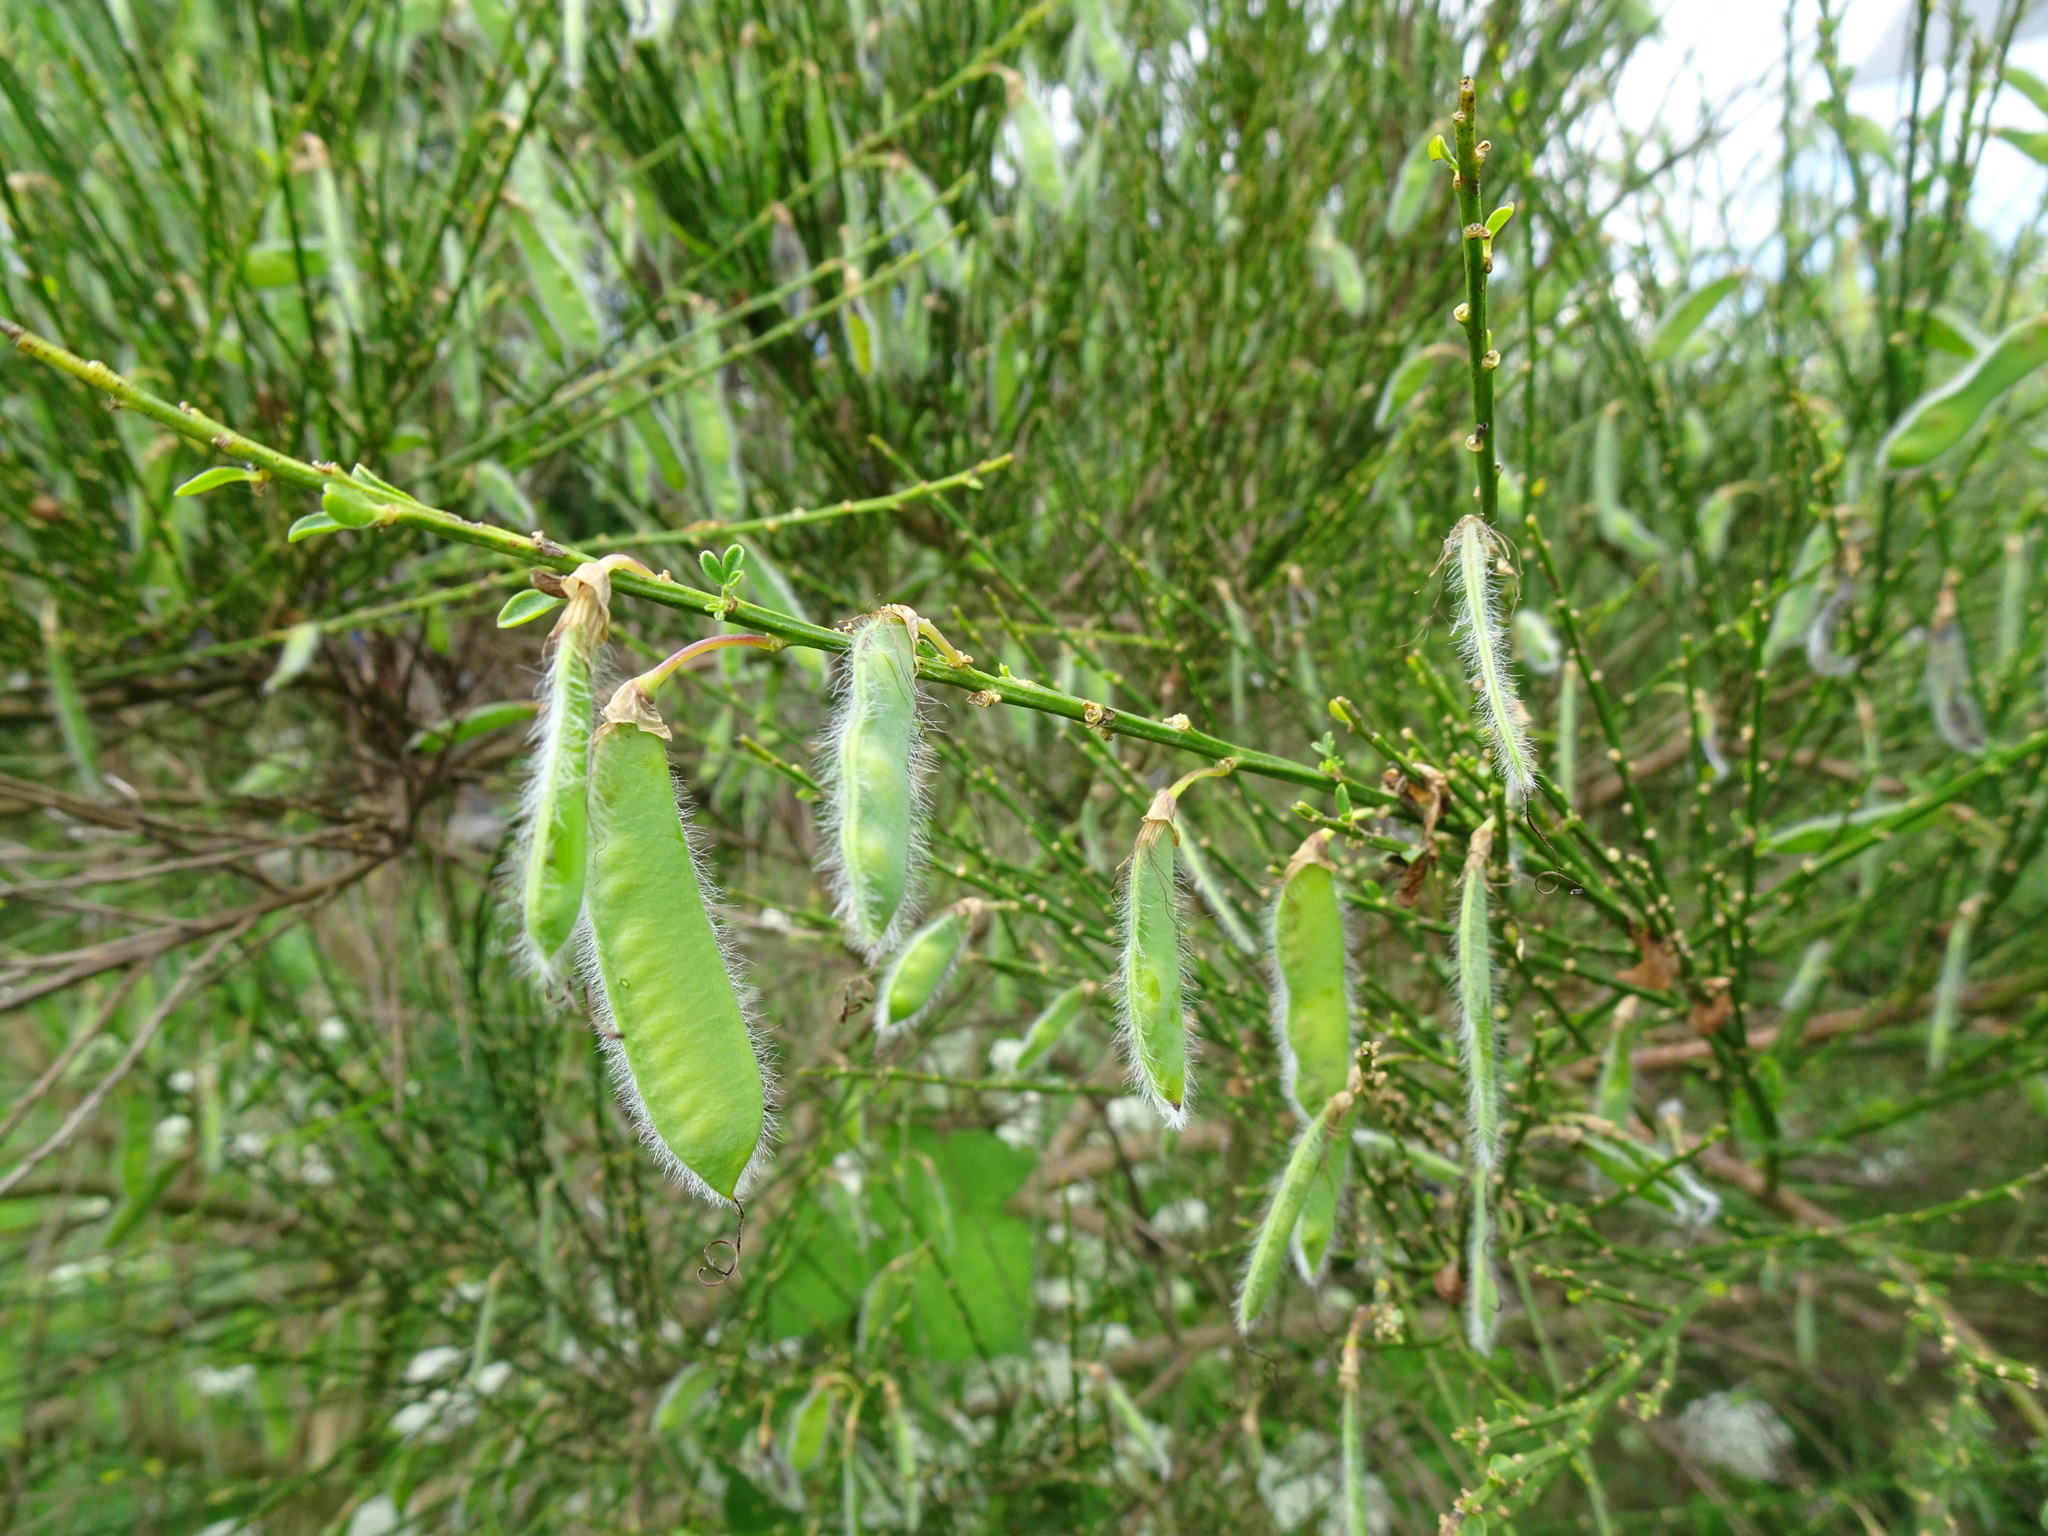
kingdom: Plantae
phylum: Tracheophyta
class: Magnoliopsida
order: Fabales
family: Fabaceae
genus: Cytisus
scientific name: Cytisus scoparius
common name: Scotch broom
